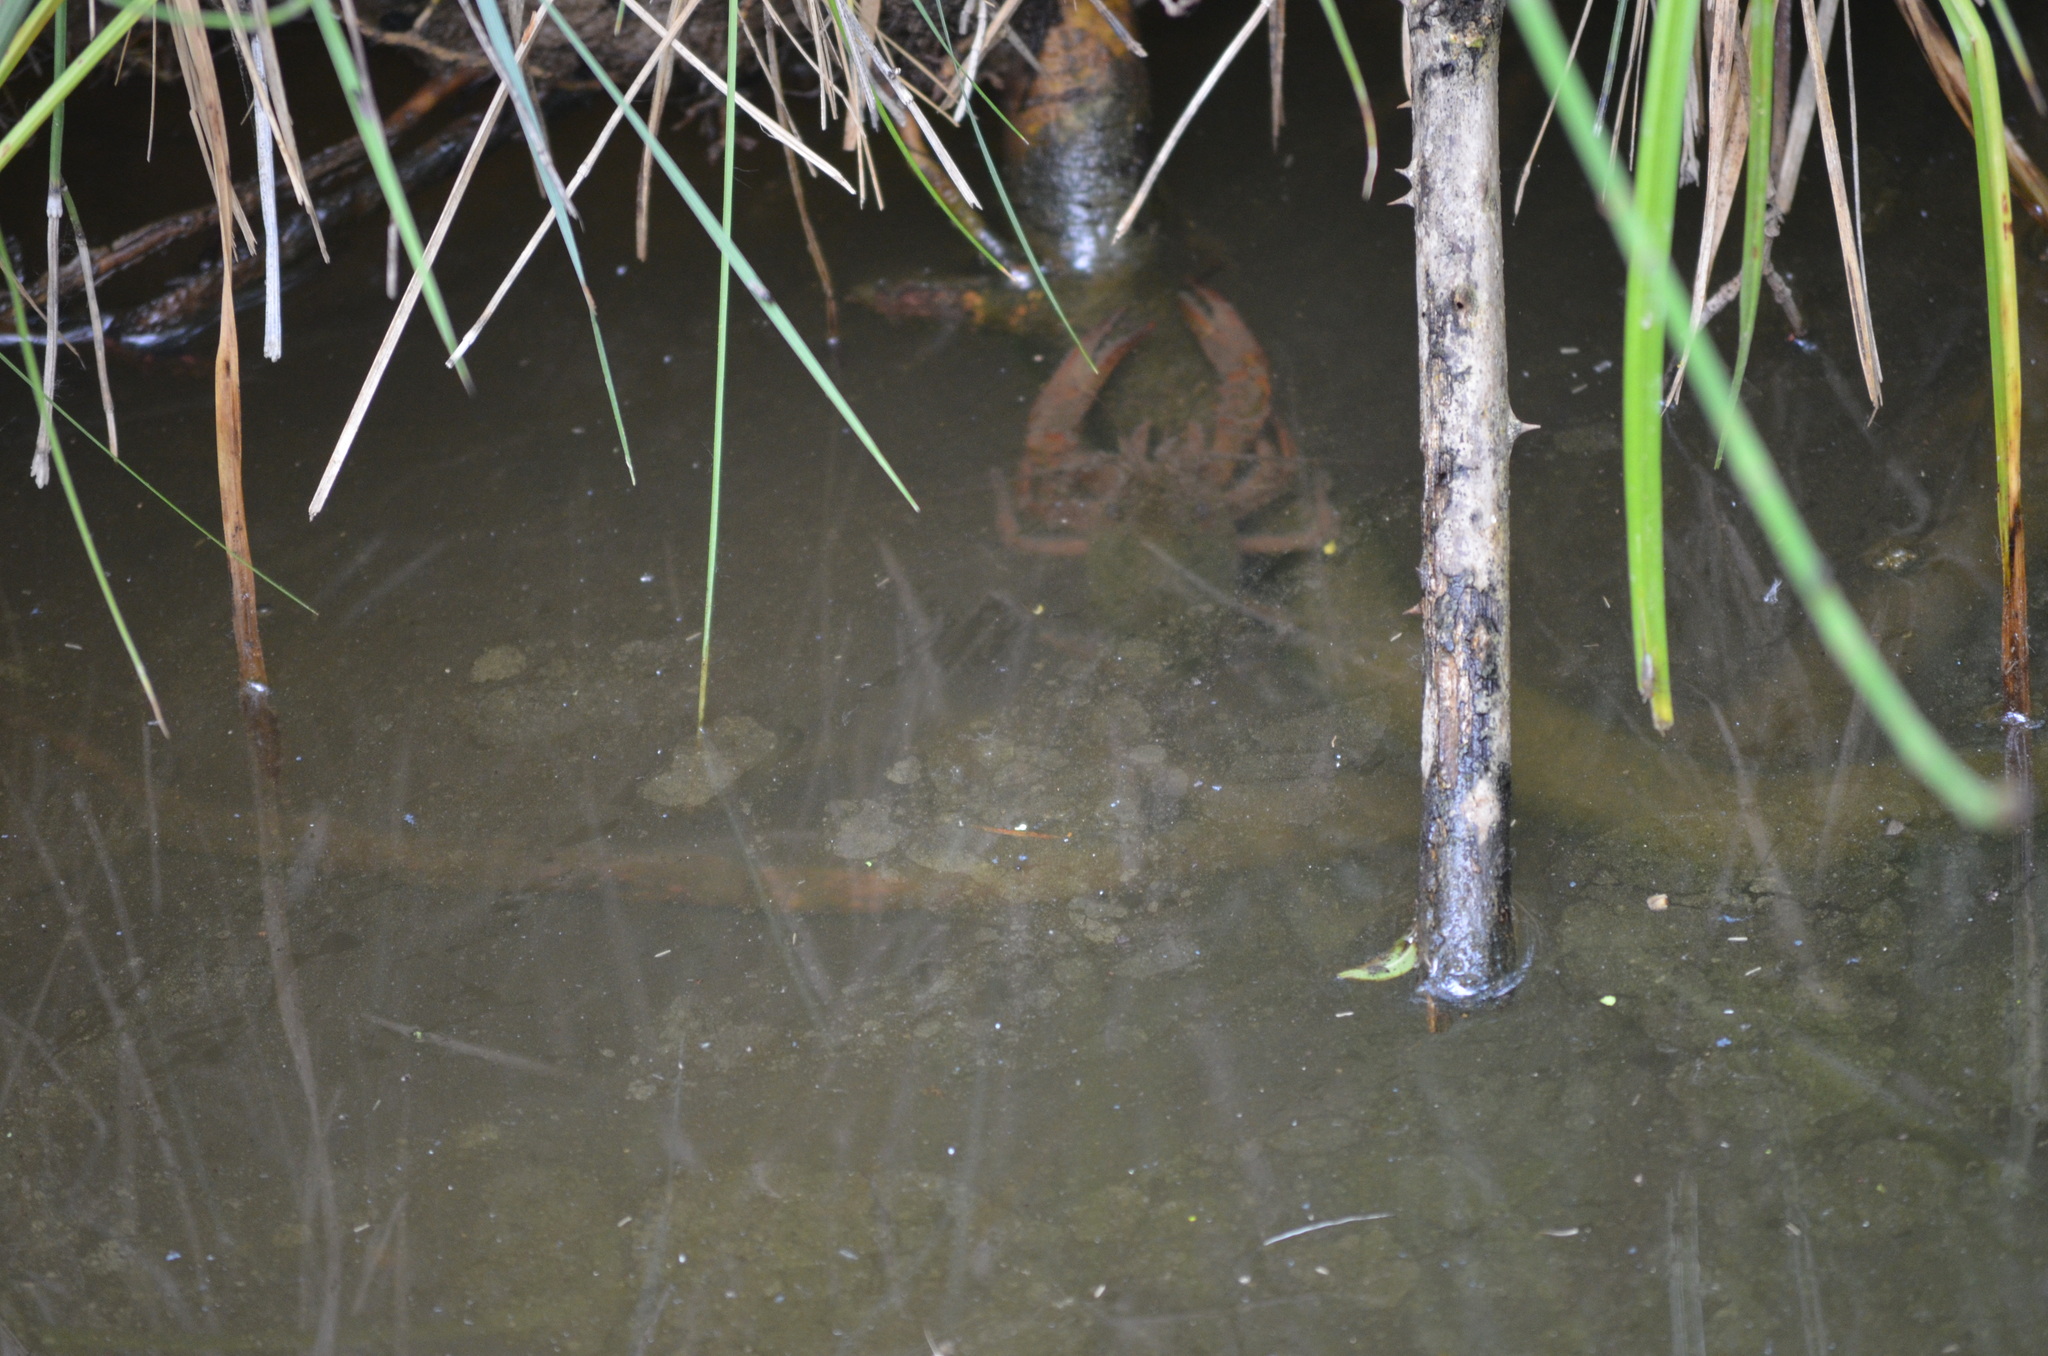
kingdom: Animalia
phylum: Arthropoda
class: Malacostraca
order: Decapoda
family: Cambaridae
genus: Procambarus
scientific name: Procambarus clarkii
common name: Red swamp crayfish
